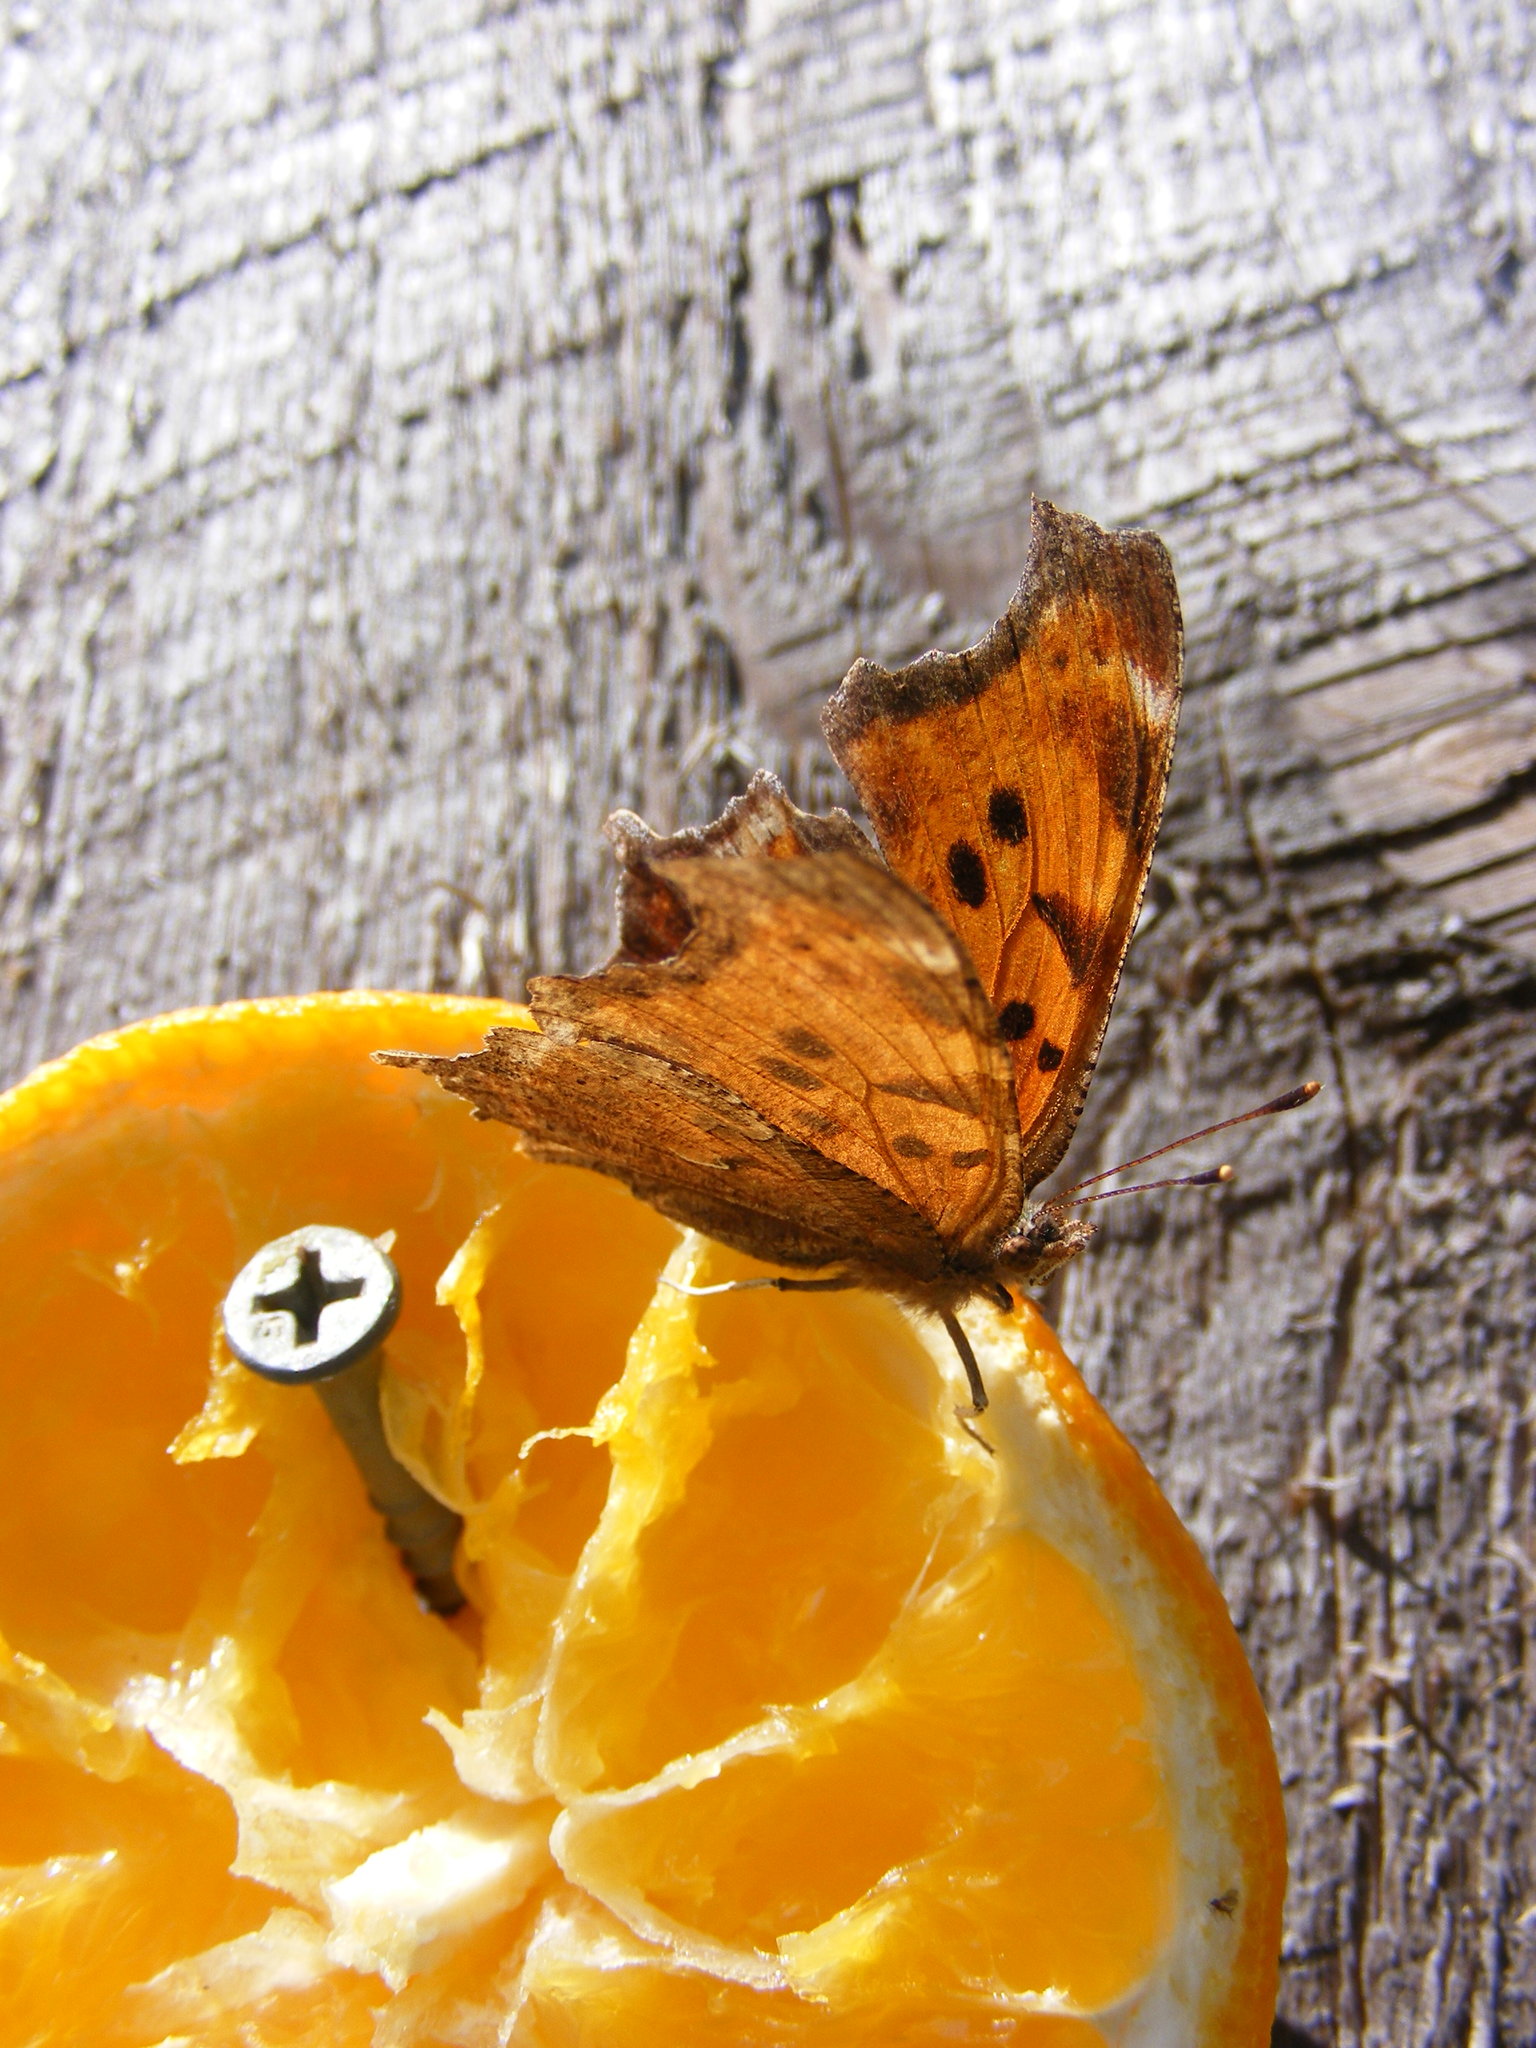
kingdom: Animalia
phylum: Arthropoda
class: Insecta
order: Lepidoptera
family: Nymphalidae
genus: Polygonia
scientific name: Polygonia comma
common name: Eastern comma
